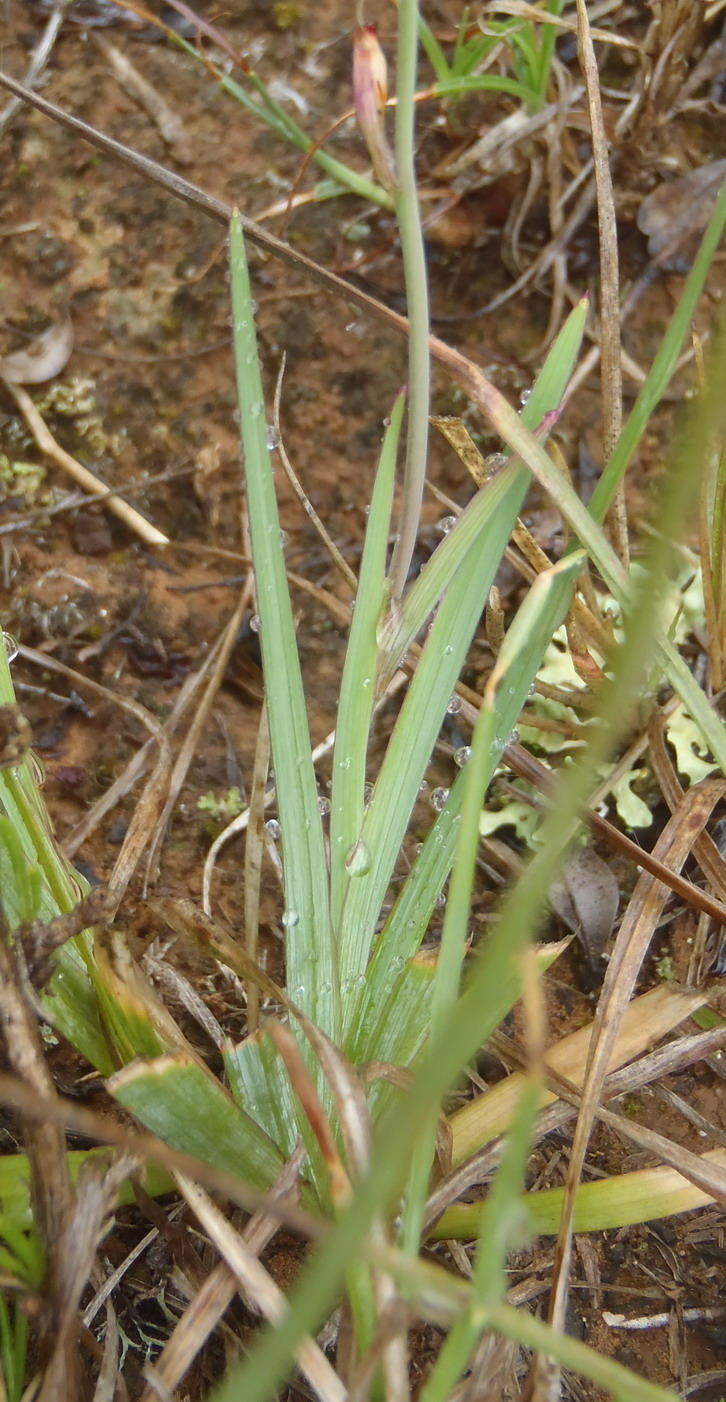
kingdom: Plantae
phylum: Tracheophyta
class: Liliopsida
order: Asparagales
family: Iridaceae
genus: Freesia
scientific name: Freesia corymbosa
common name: Common freesia
